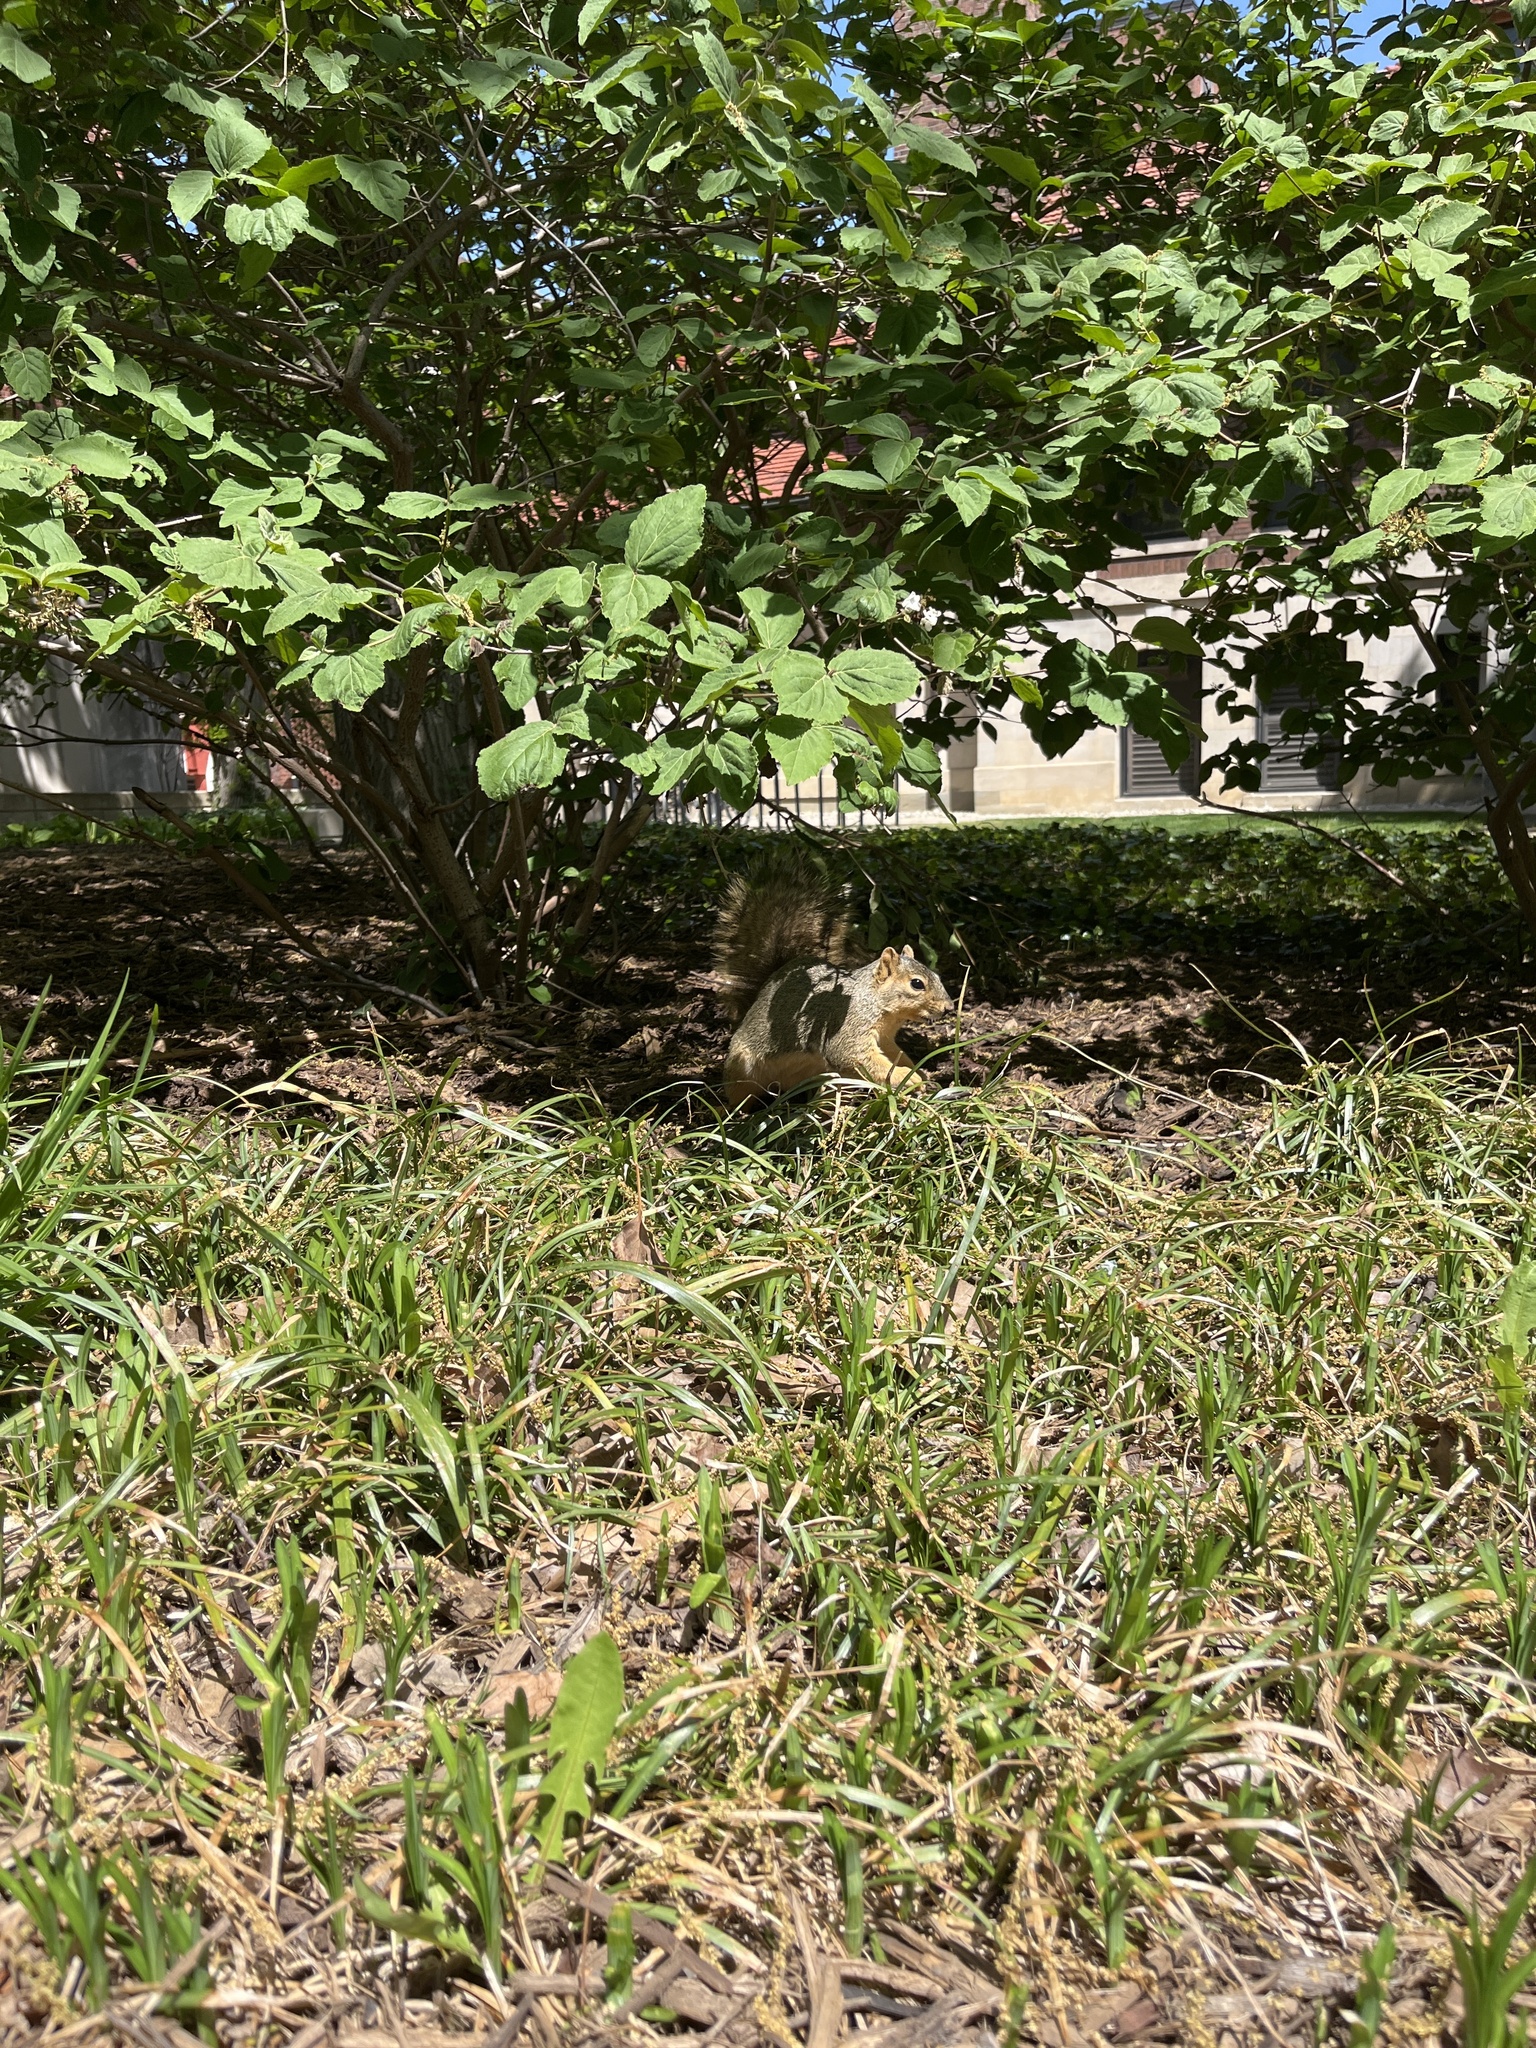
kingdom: Animalia
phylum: Chordata
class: Mammalia
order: Rodentia
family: Sciuridae
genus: Sciurus
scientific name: Sciurus niger
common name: Fox squirrel
